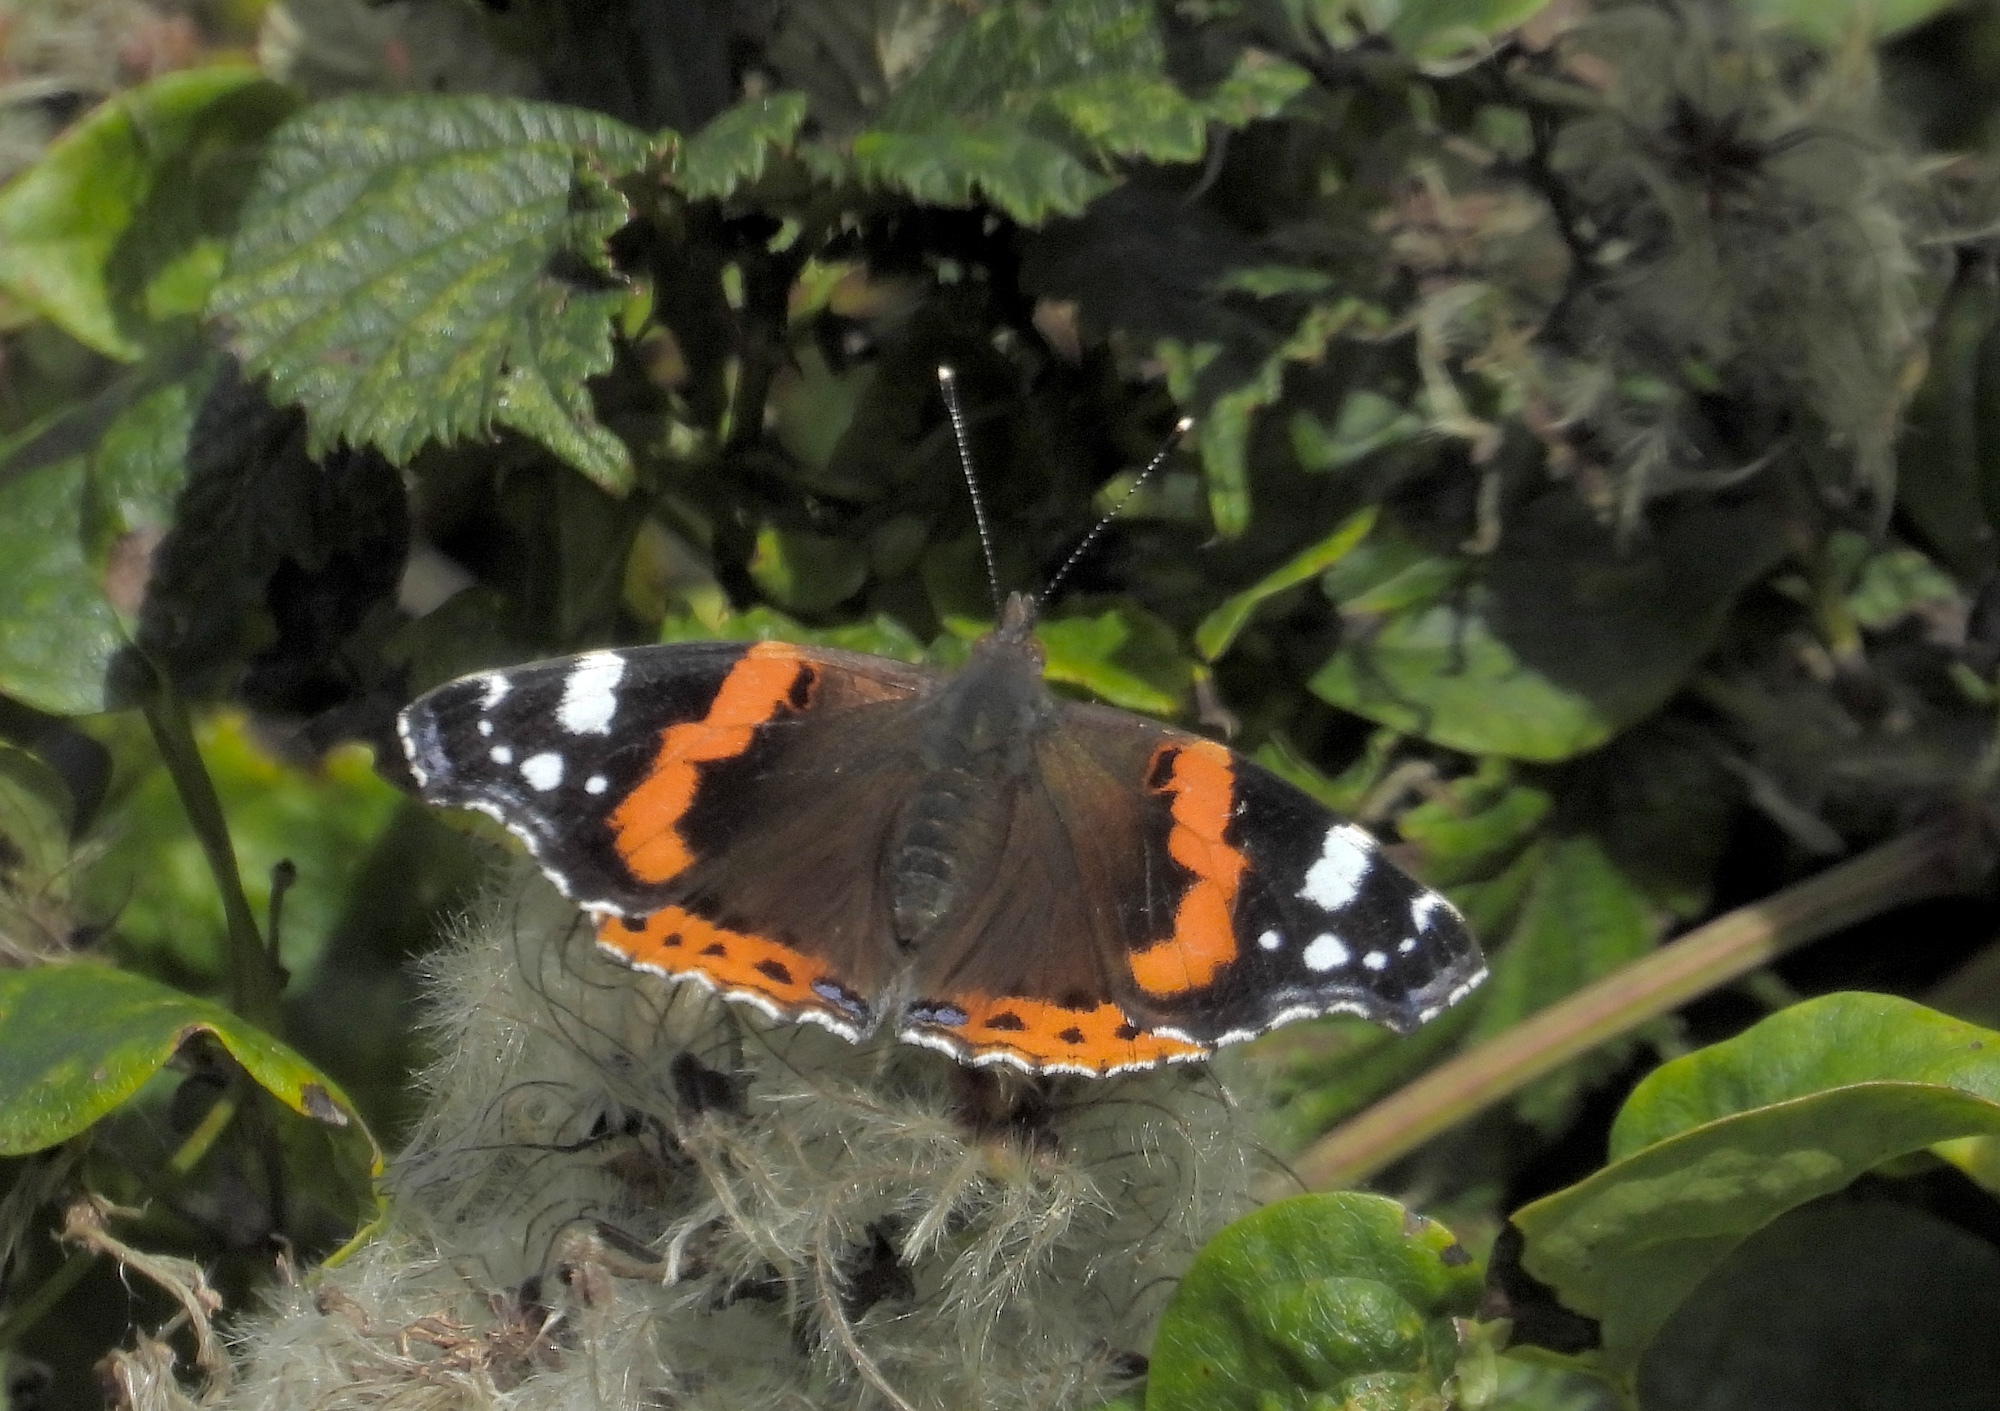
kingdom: Animalia
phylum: Arthropoda
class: Insecta
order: Lepidoptera
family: Nymphalidae
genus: Vanessa
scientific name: Vanessa atalanta
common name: Red admiral
